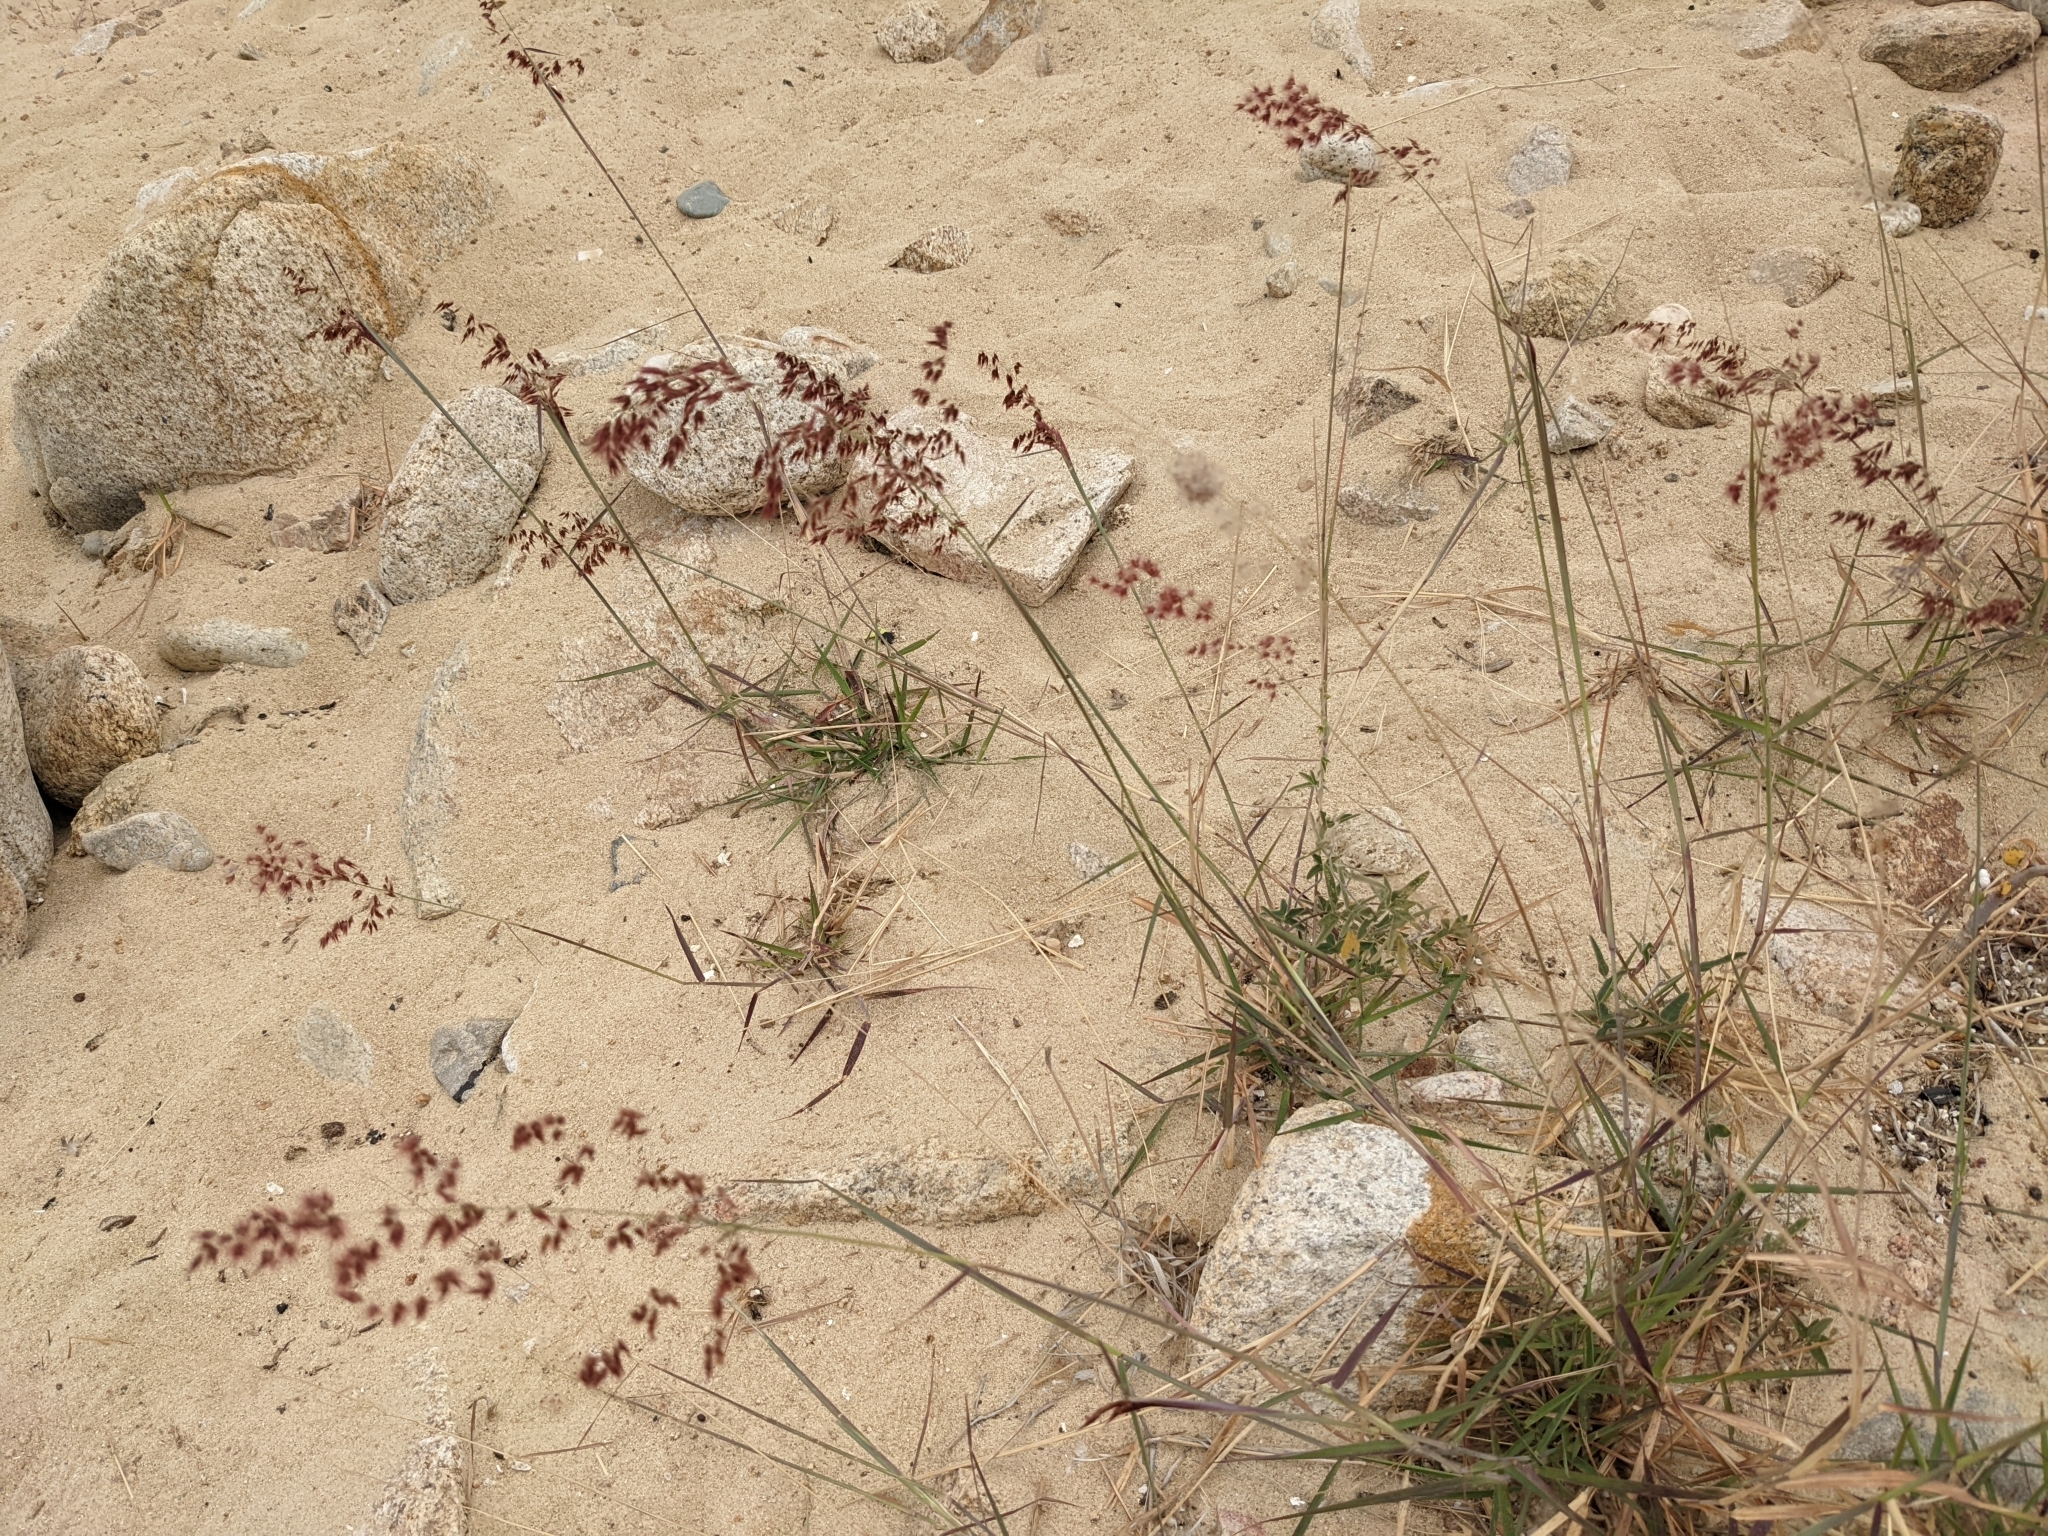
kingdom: Plantae
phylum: Tracheophyta
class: Liliopsida
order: Poales
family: Poaceae
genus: Melinis
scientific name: Melinis repens
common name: Rose natal grass
